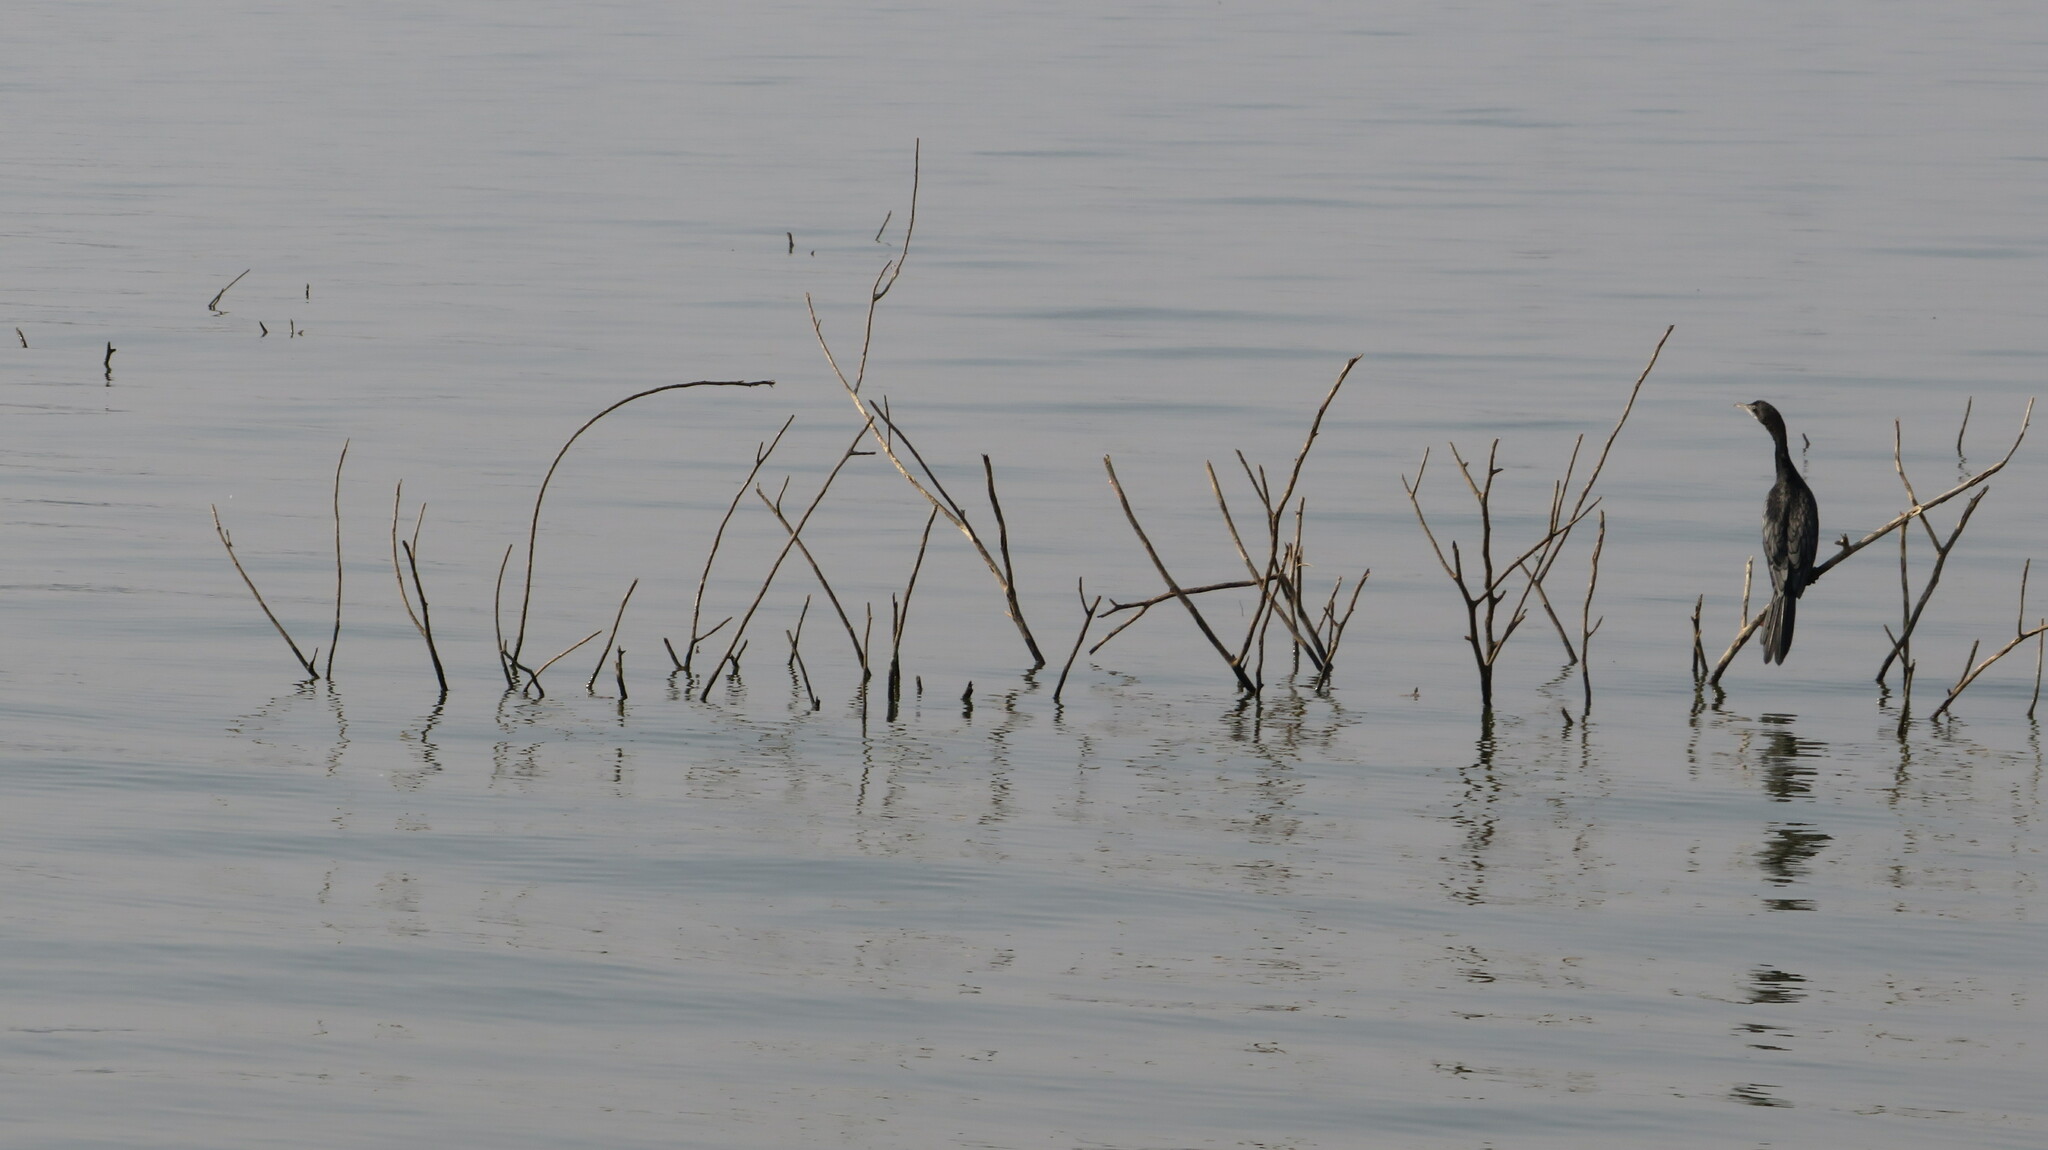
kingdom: Animalia
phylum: Chordata
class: Aves
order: Suliformes
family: Phalacrocoracidae
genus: Microcarbo
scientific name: Microcarbo niger
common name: Little cormorant
